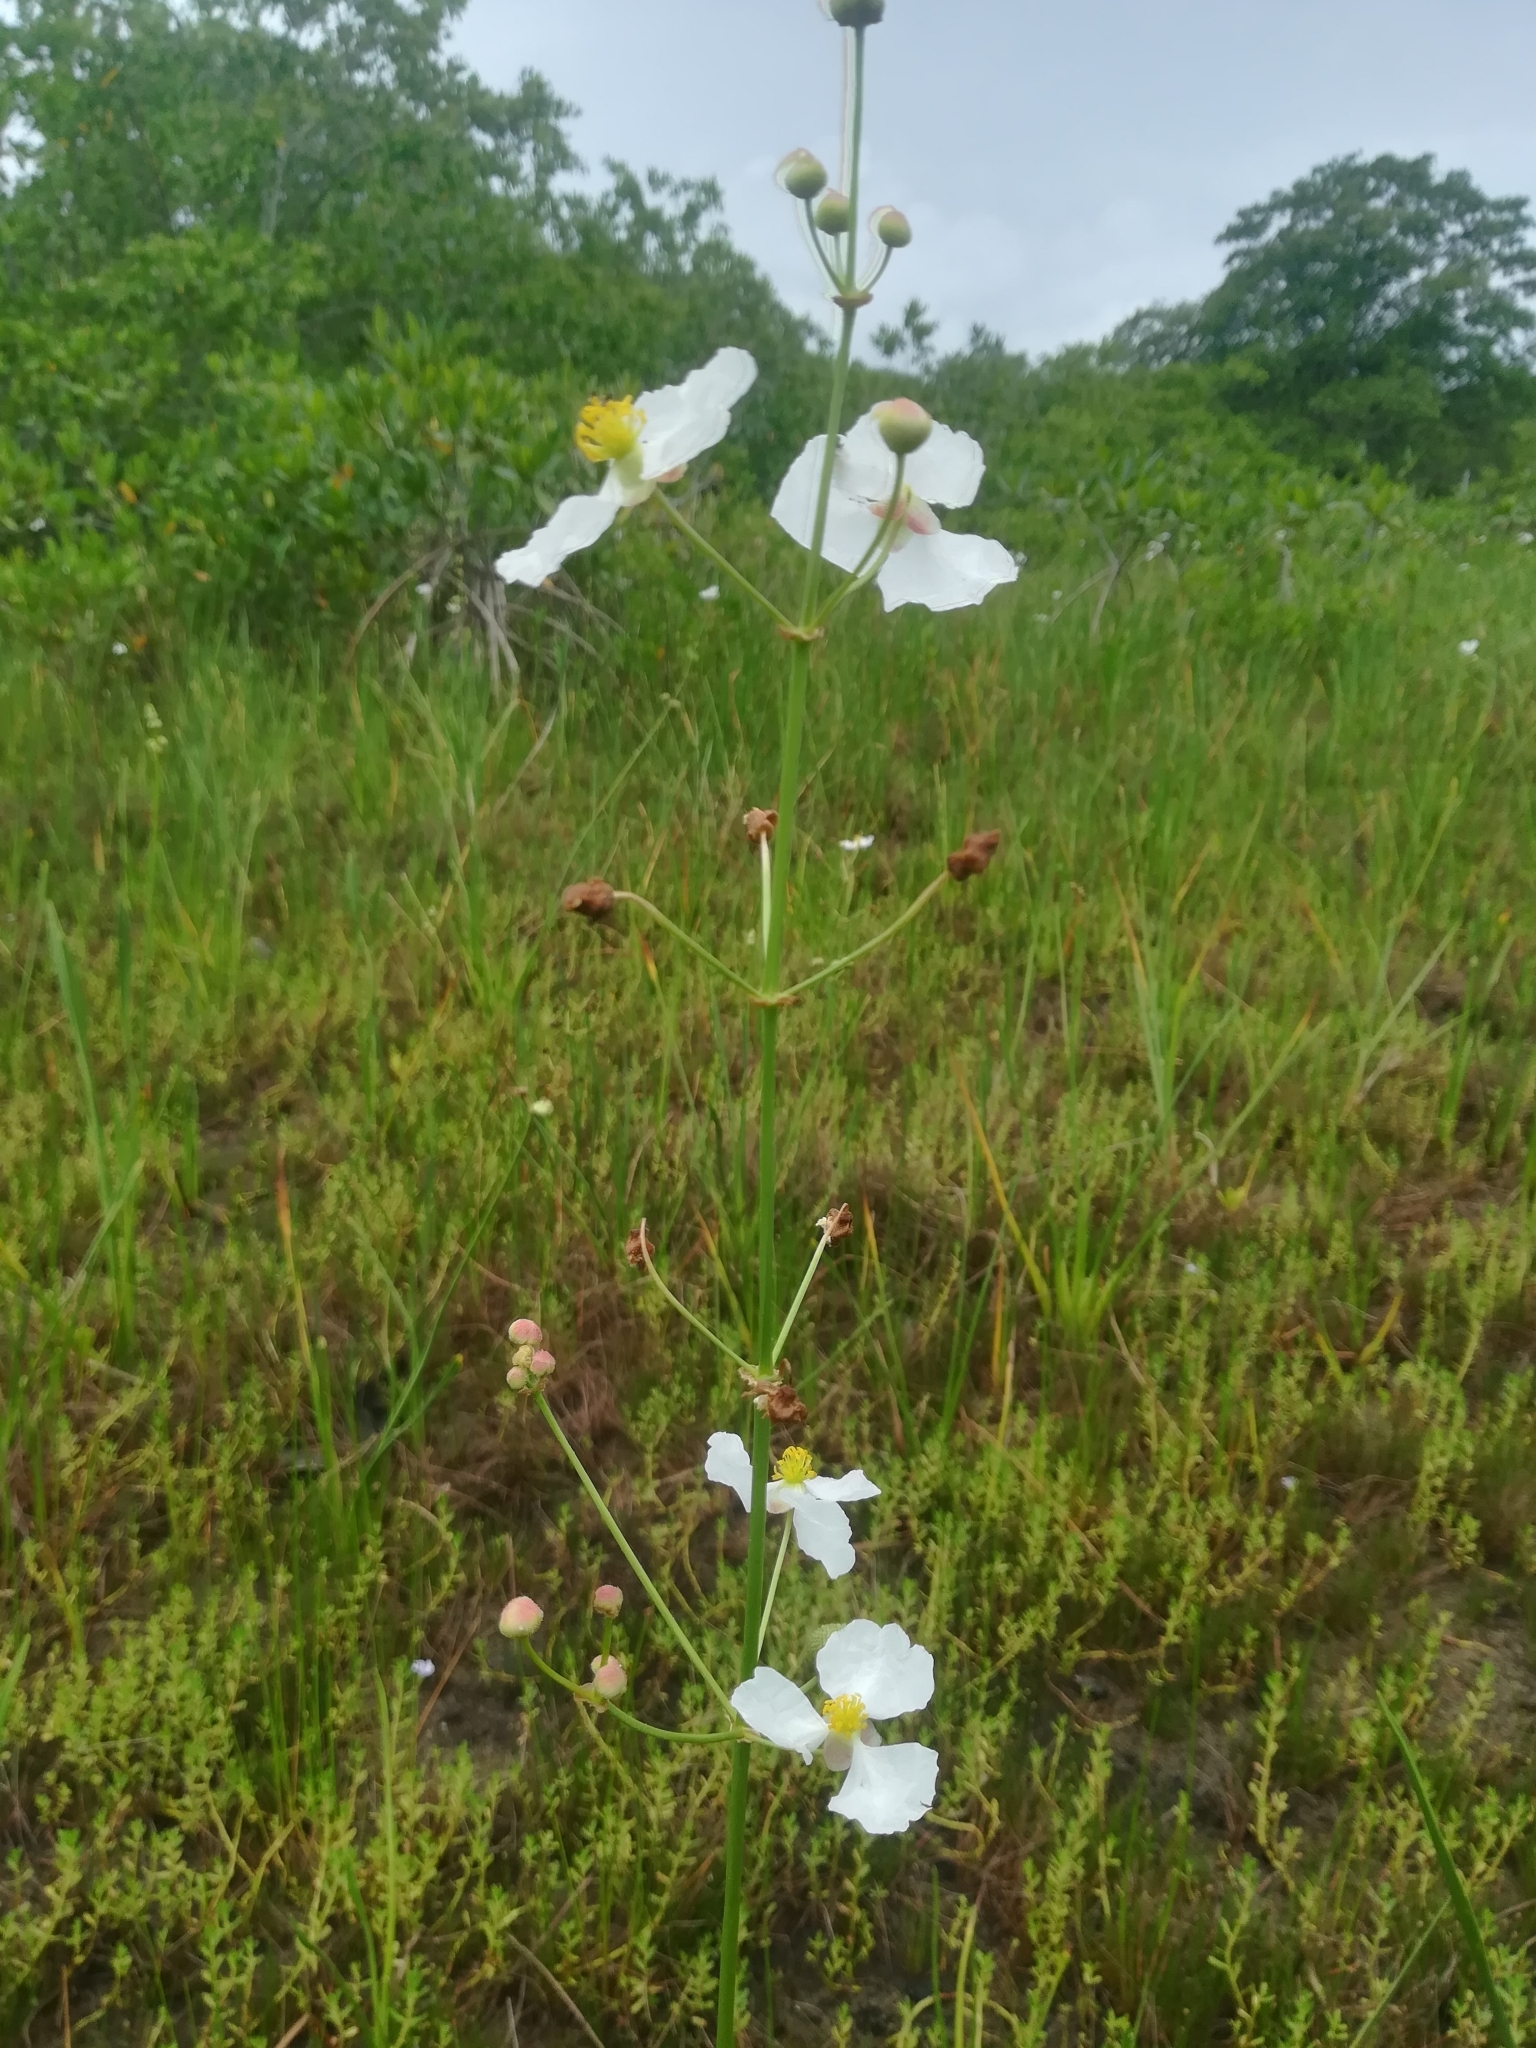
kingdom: Plantae
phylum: Tracheophyta
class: Liliopsida
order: Alismatales
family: Alismataceae
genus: Sagittaria
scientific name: Sagittaria lancifolia
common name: Lance-leaf arrowhead
